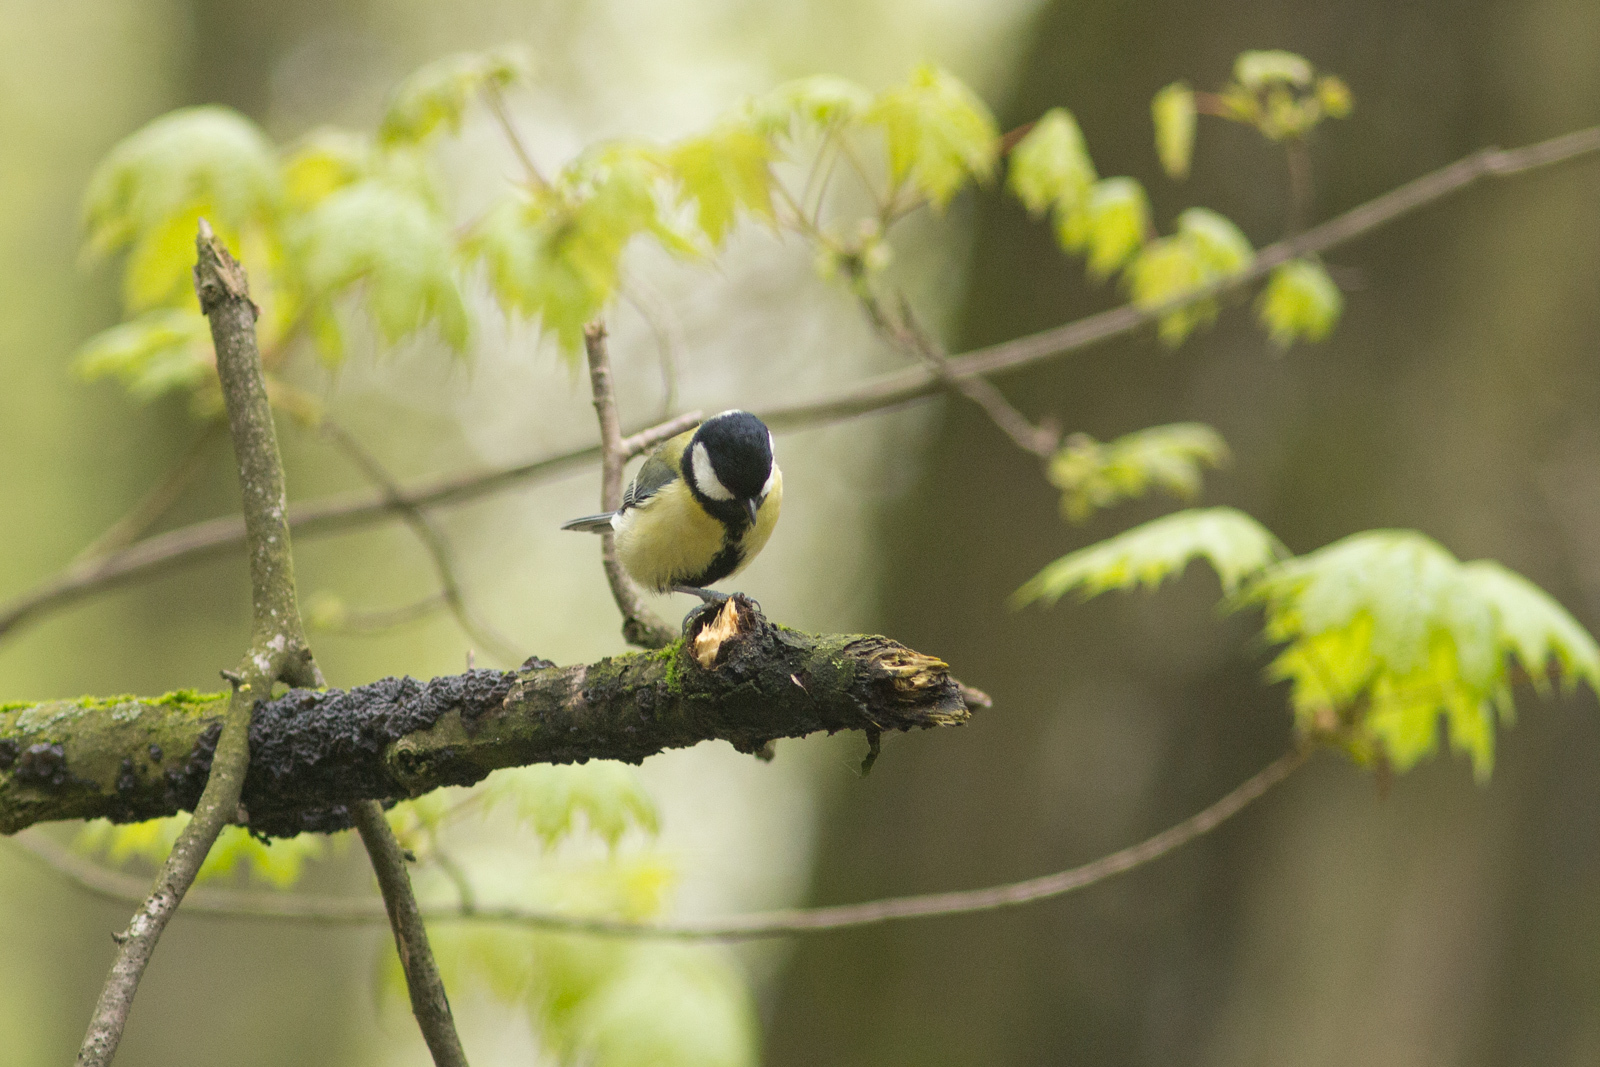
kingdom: Animalia
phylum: Chordata
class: Aves
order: Passeriformes
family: Paridae
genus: Parus
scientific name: Parus major
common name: Great tit
